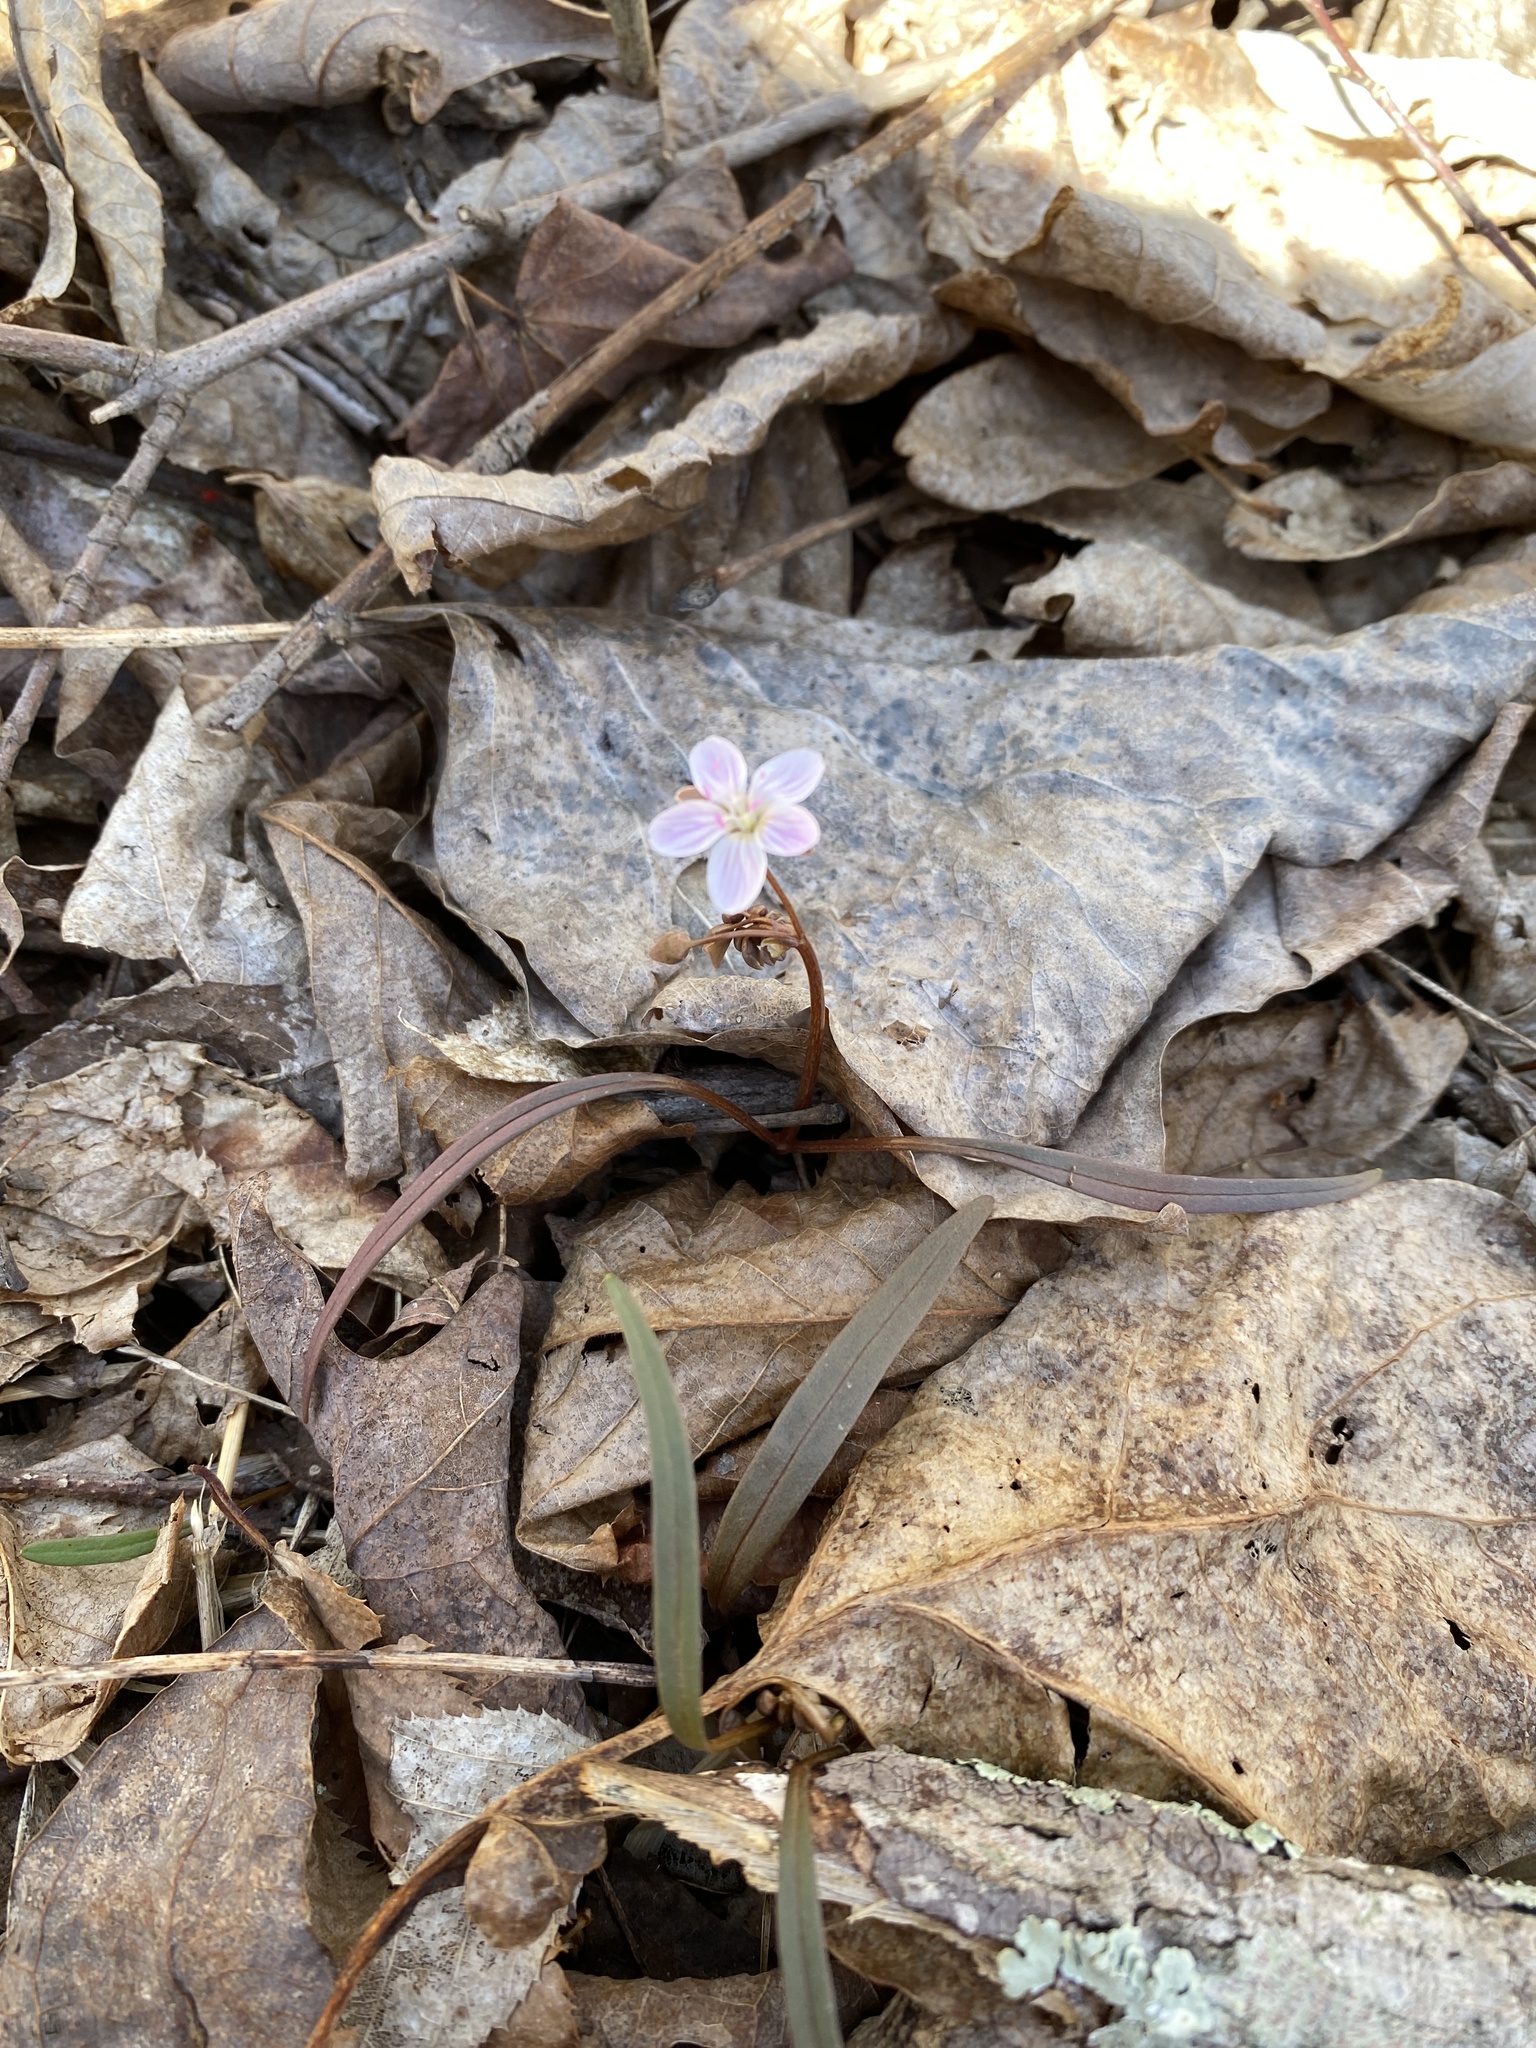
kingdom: Plantae
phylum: Tracheophyta
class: Magnoliopsida
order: Caryophyllales
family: Montiaceae
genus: Claytonia
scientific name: Claytonia virginica
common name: Virginia springbeauty
